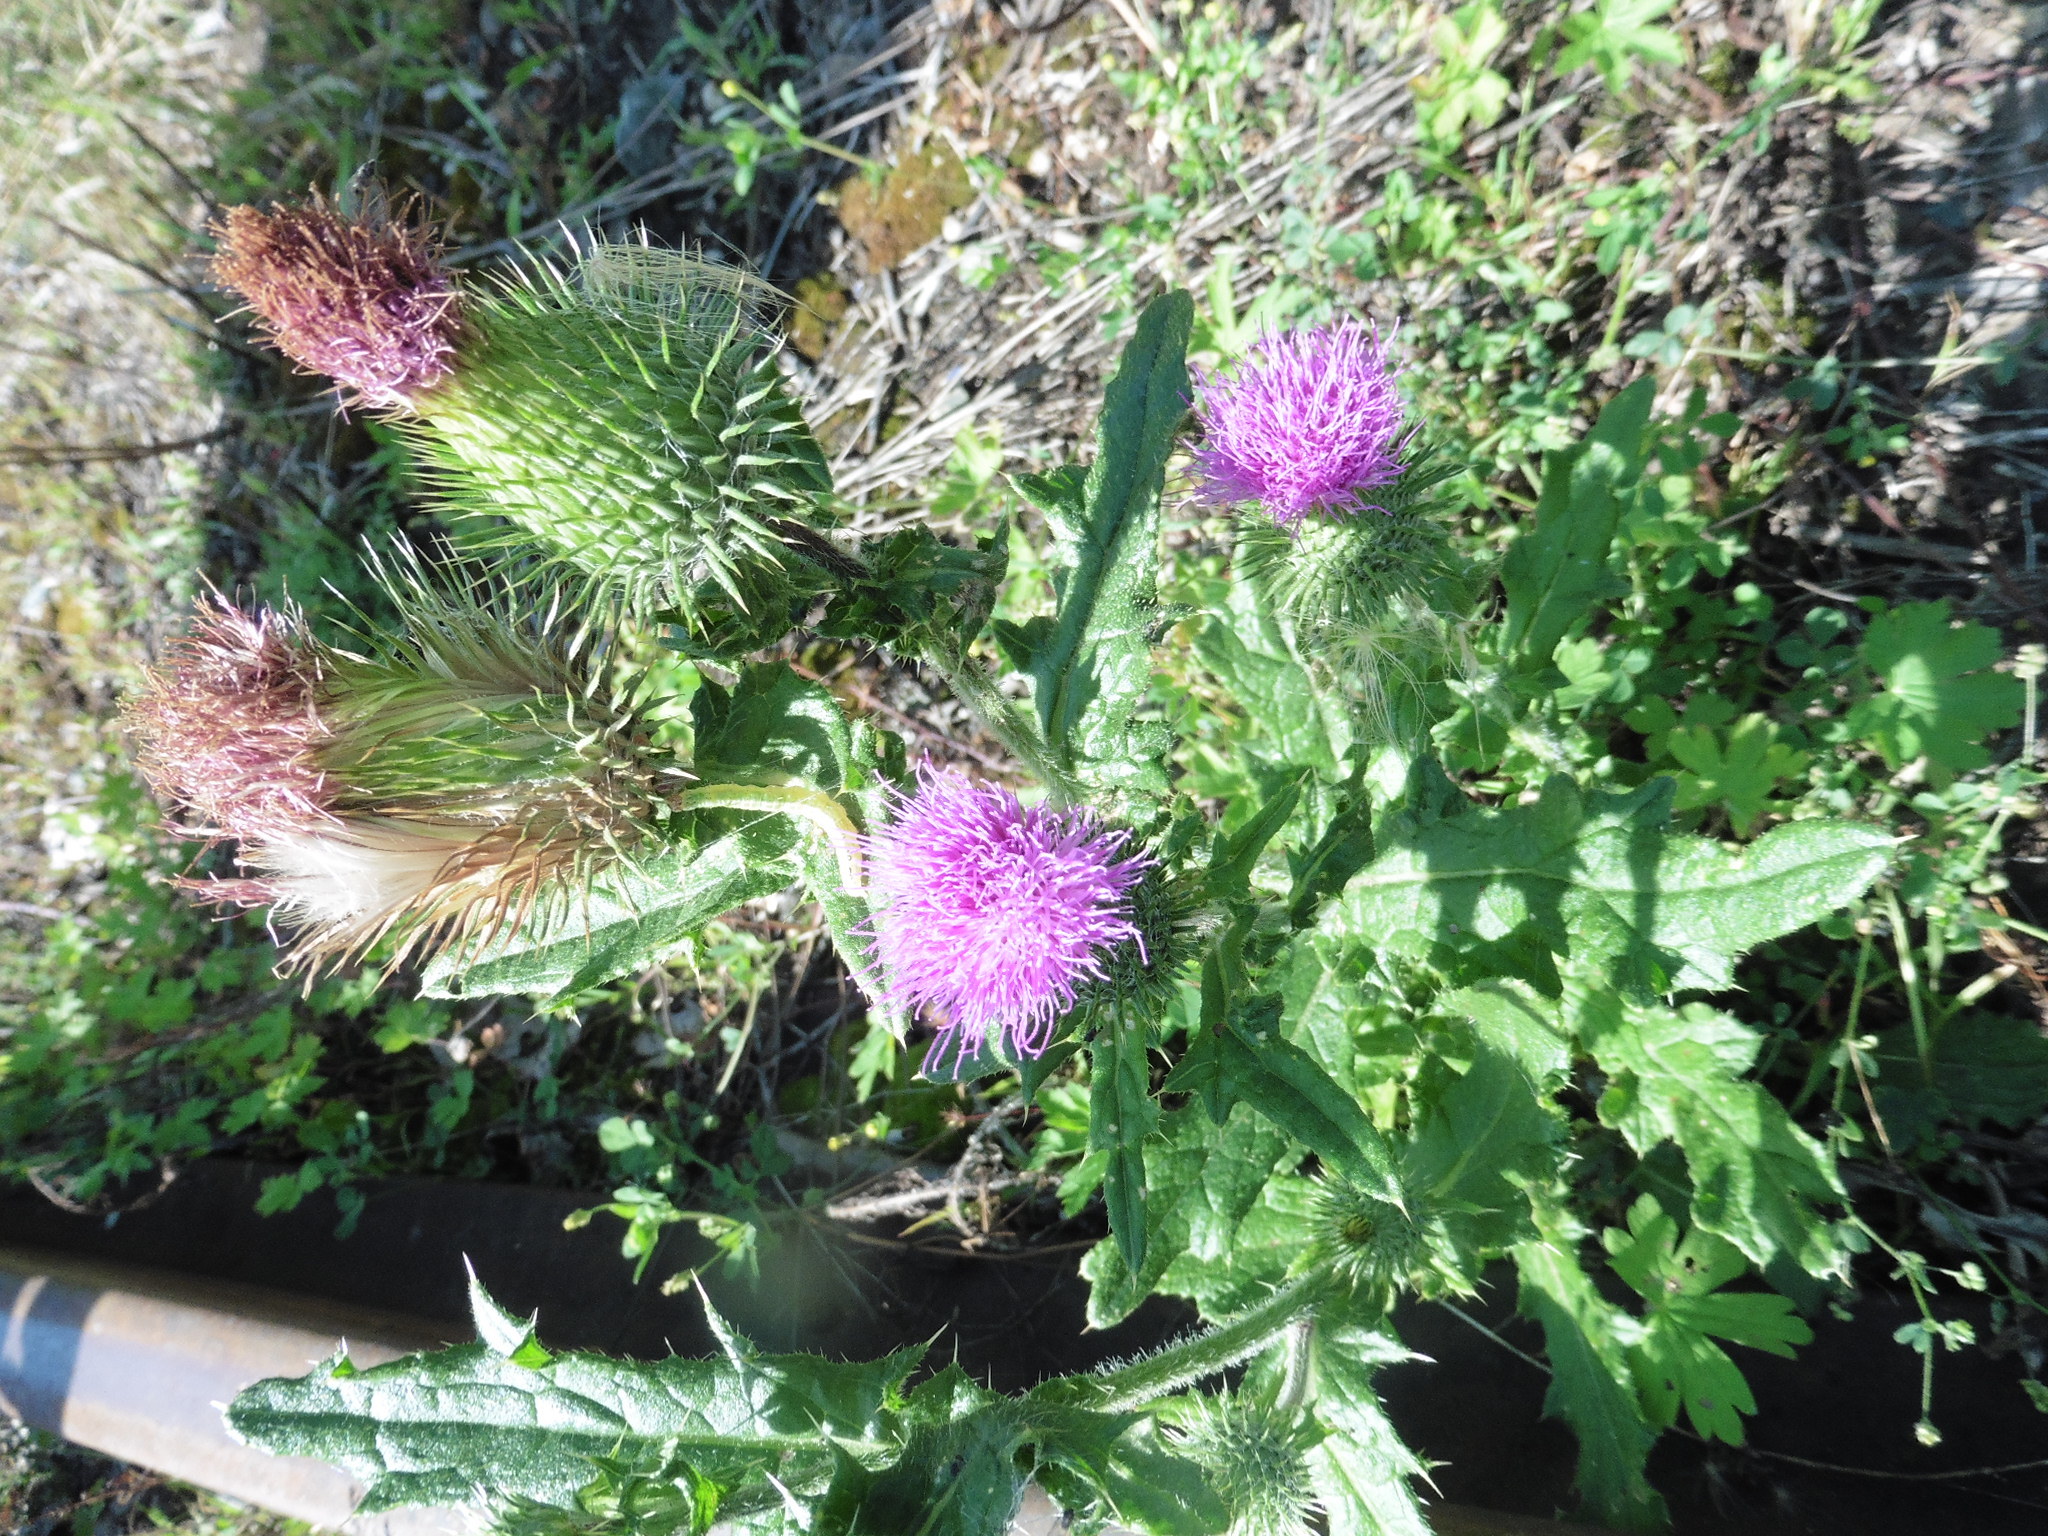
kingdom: Plantae
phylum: Tracheophyta
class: Magnoliopsida
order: Asterales
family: Asteraceae
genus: Cirsium
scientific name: Cirsium vulgare
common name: Bull thistle
